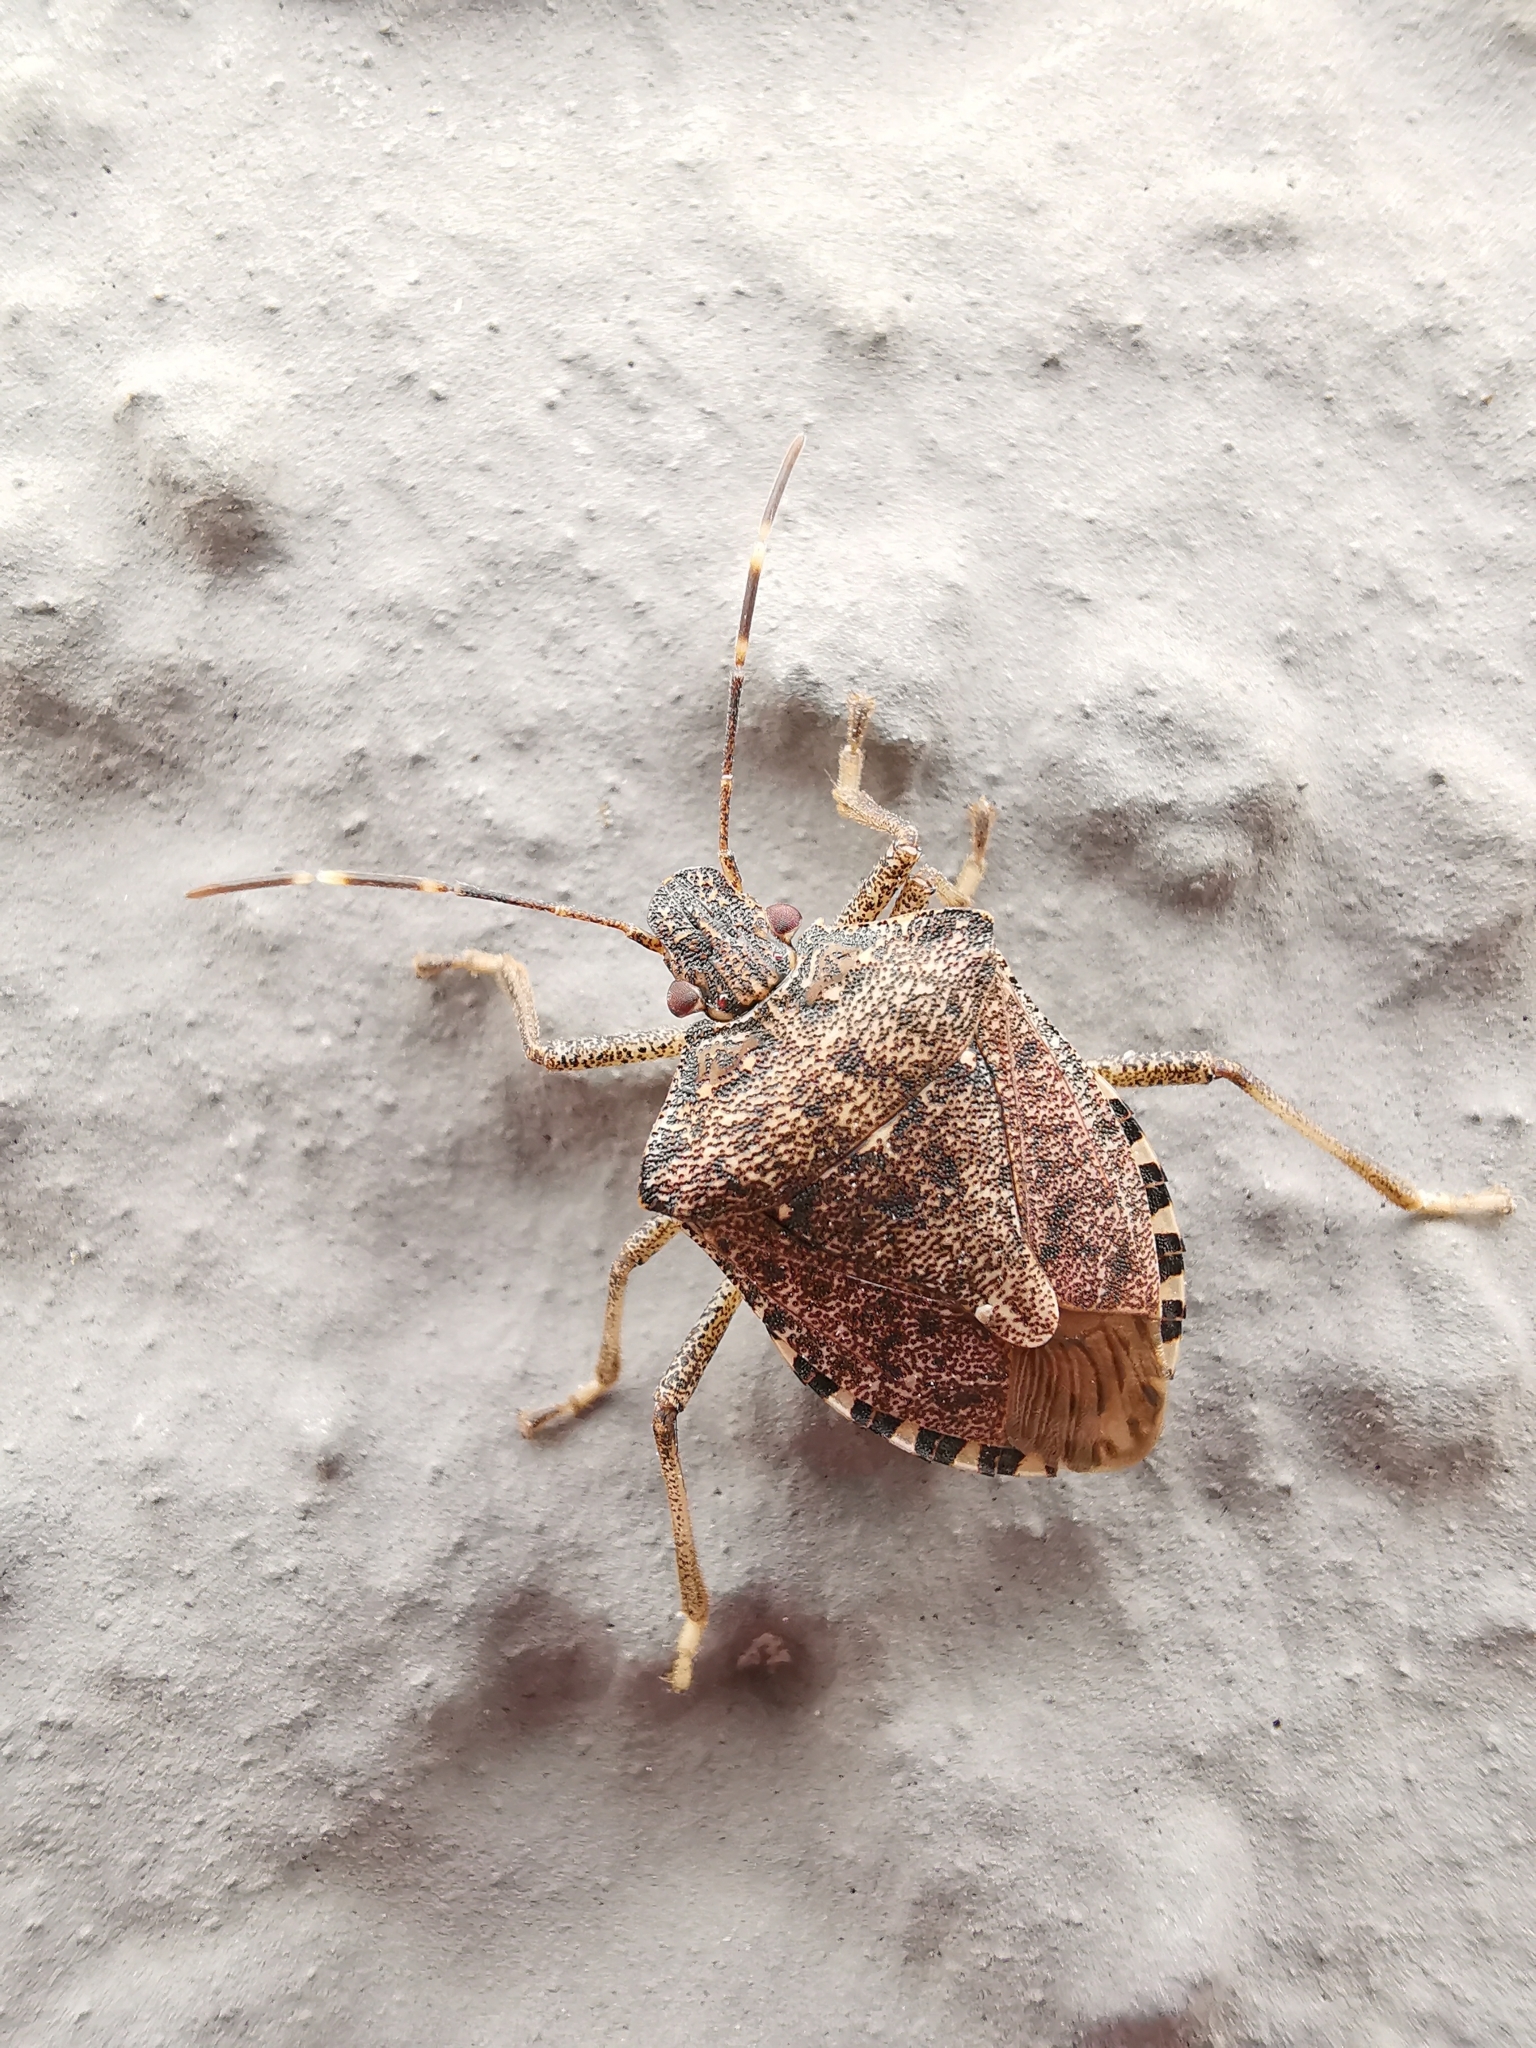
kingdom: Animalia
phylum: Arthropoda
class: Insecta
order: Hemiptera
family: Pentatomidae
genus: Halyomorpha
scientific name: Halyomorpha halys
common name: Brown marmorated stink bug
